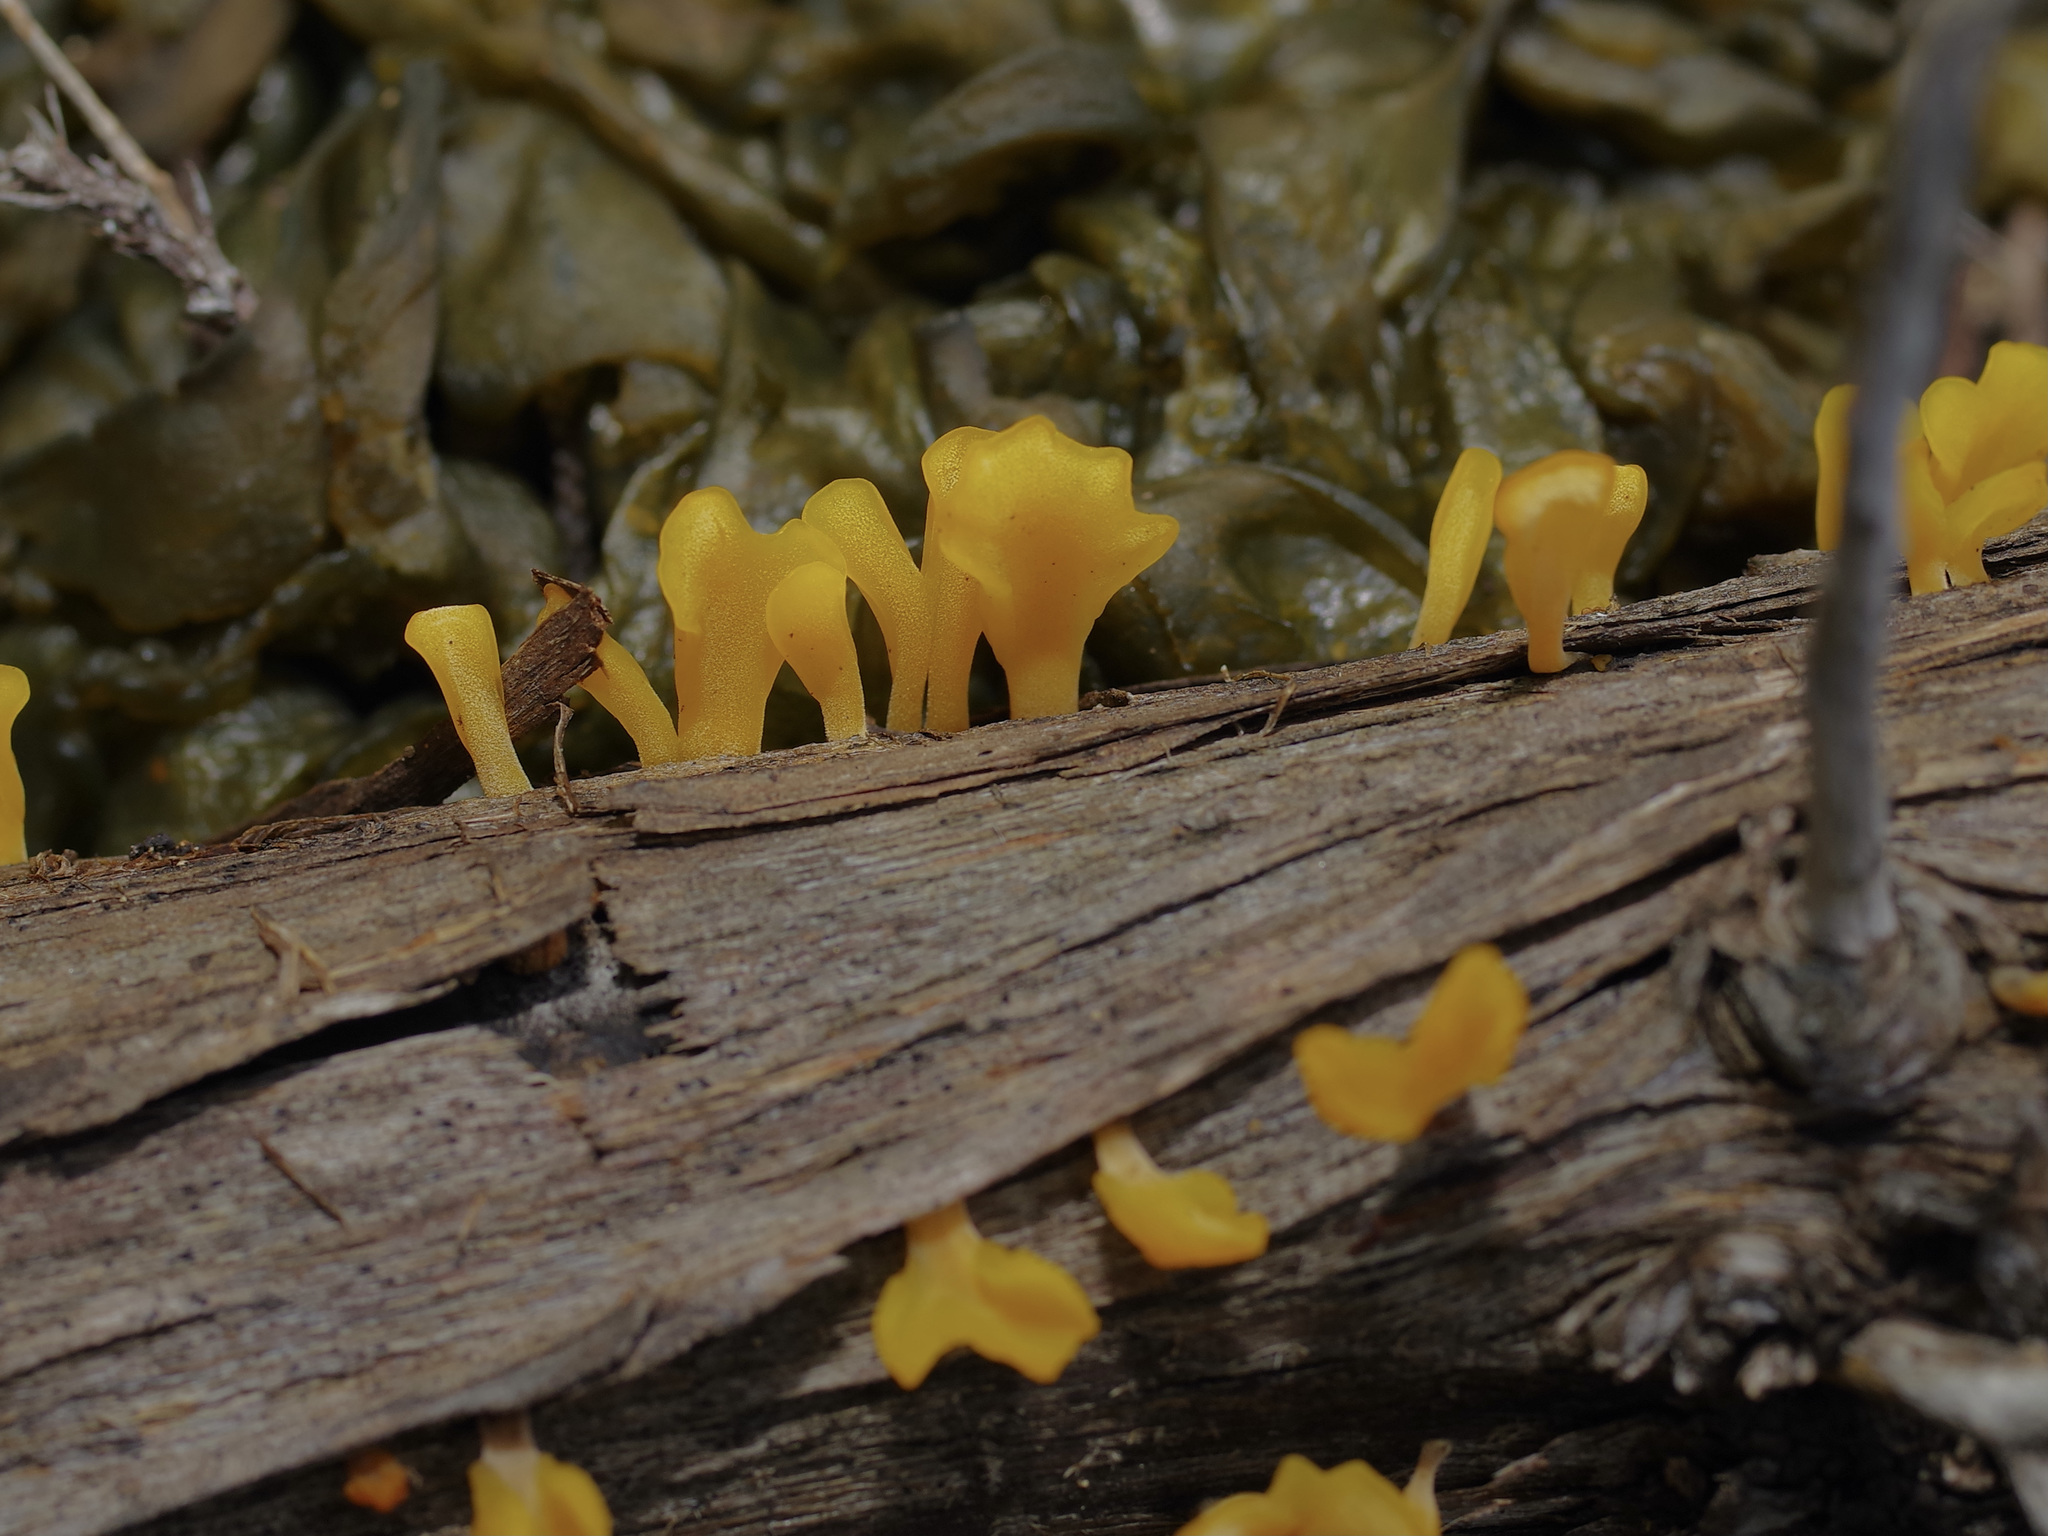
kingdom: Fungi
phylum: Basidiomycota
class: Dacrymycetes
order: Dacrymycetales
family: Dacrymycetaceae
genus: Dacrymyces
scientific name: Dacrymyces spathularius
